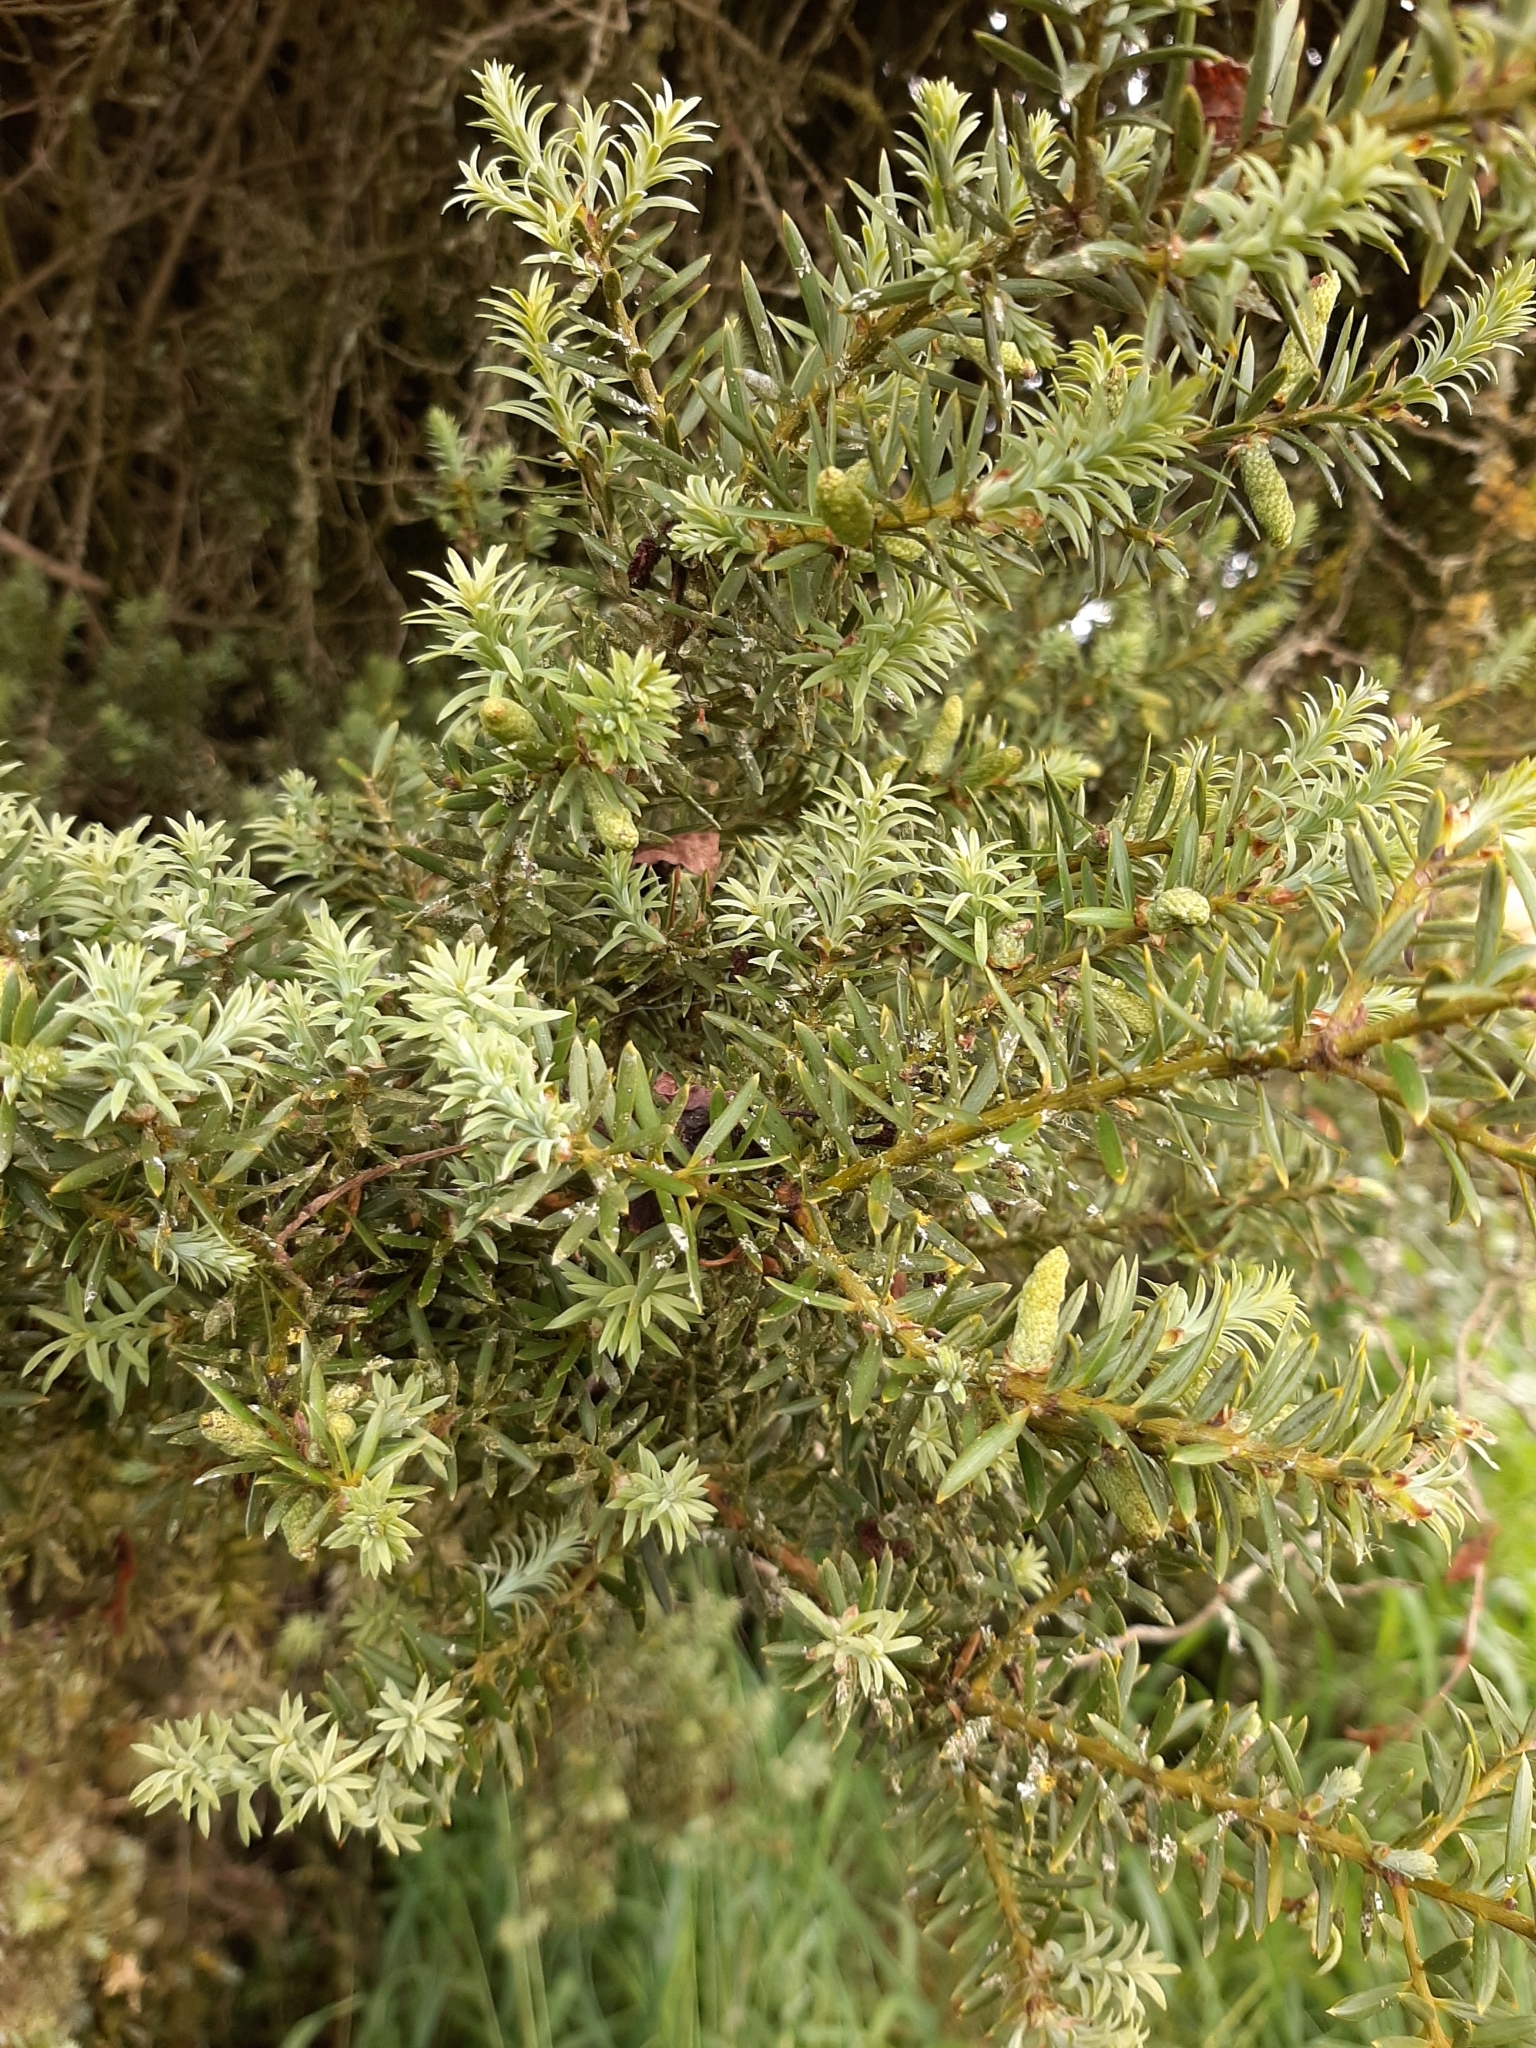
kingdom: Plantae
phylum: Tracheophyta
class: Pinopsida
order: Pinales
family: Podocarpaceae
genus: Podocarpus
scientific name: Podocarpus totara
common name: Totara
